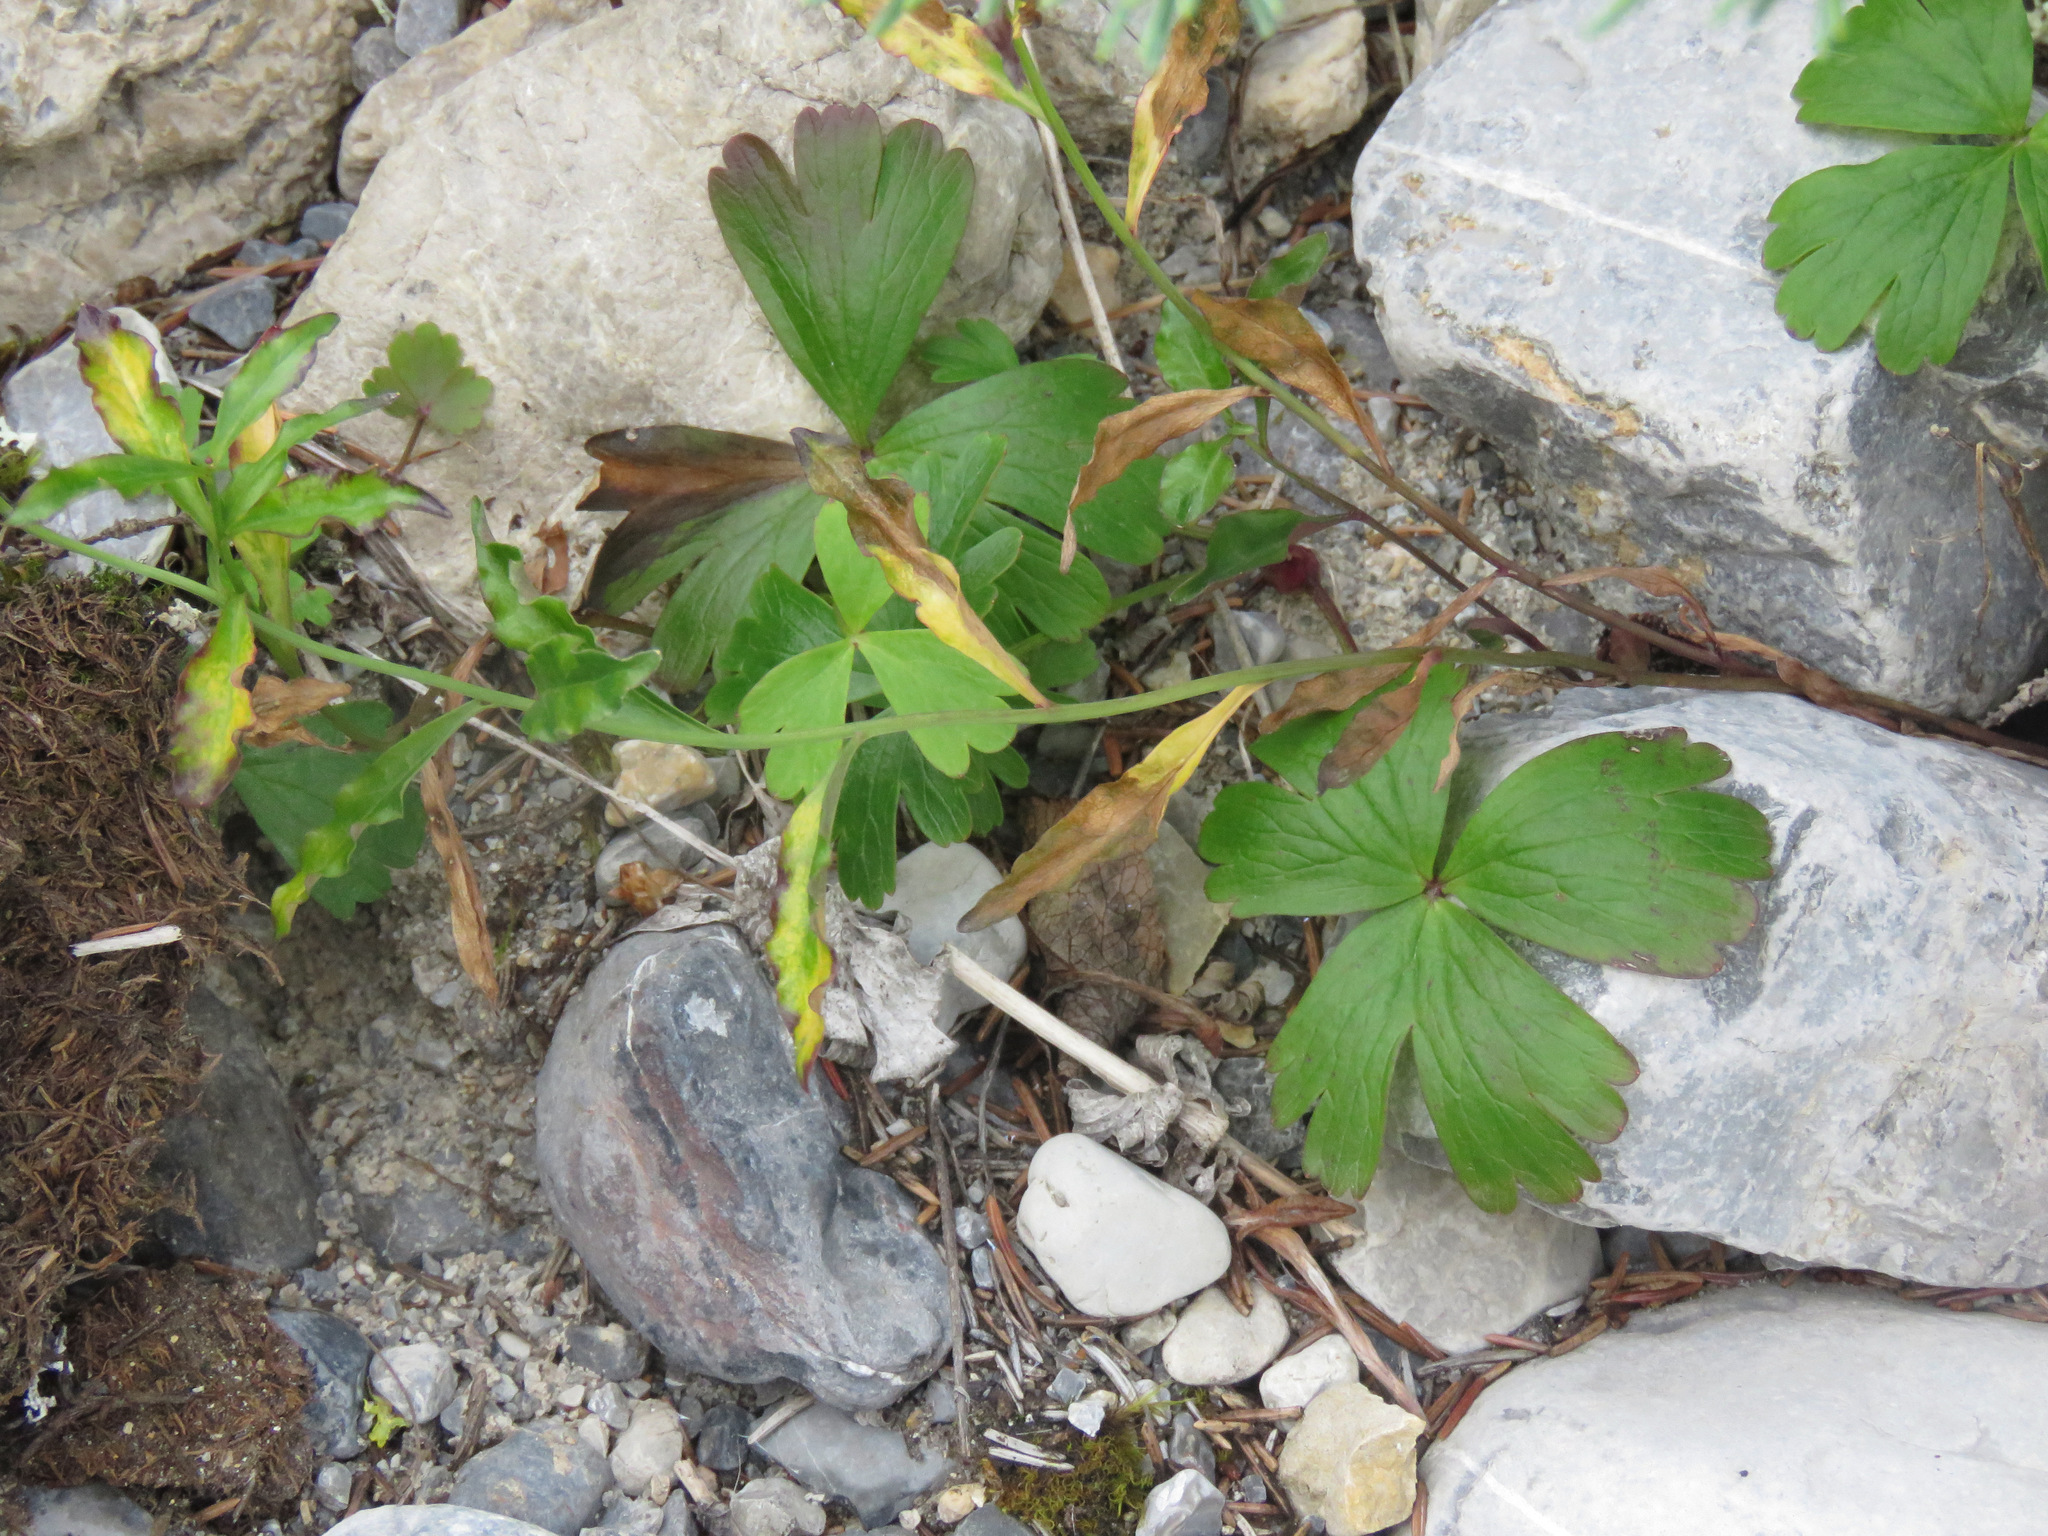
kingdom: Plantae
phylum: Tracheophyta
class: Magnoliopsida
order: Ranunculales
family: Ranunculaceae
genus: Anemone
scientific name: Anemone parviflora
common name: Northern anemone
